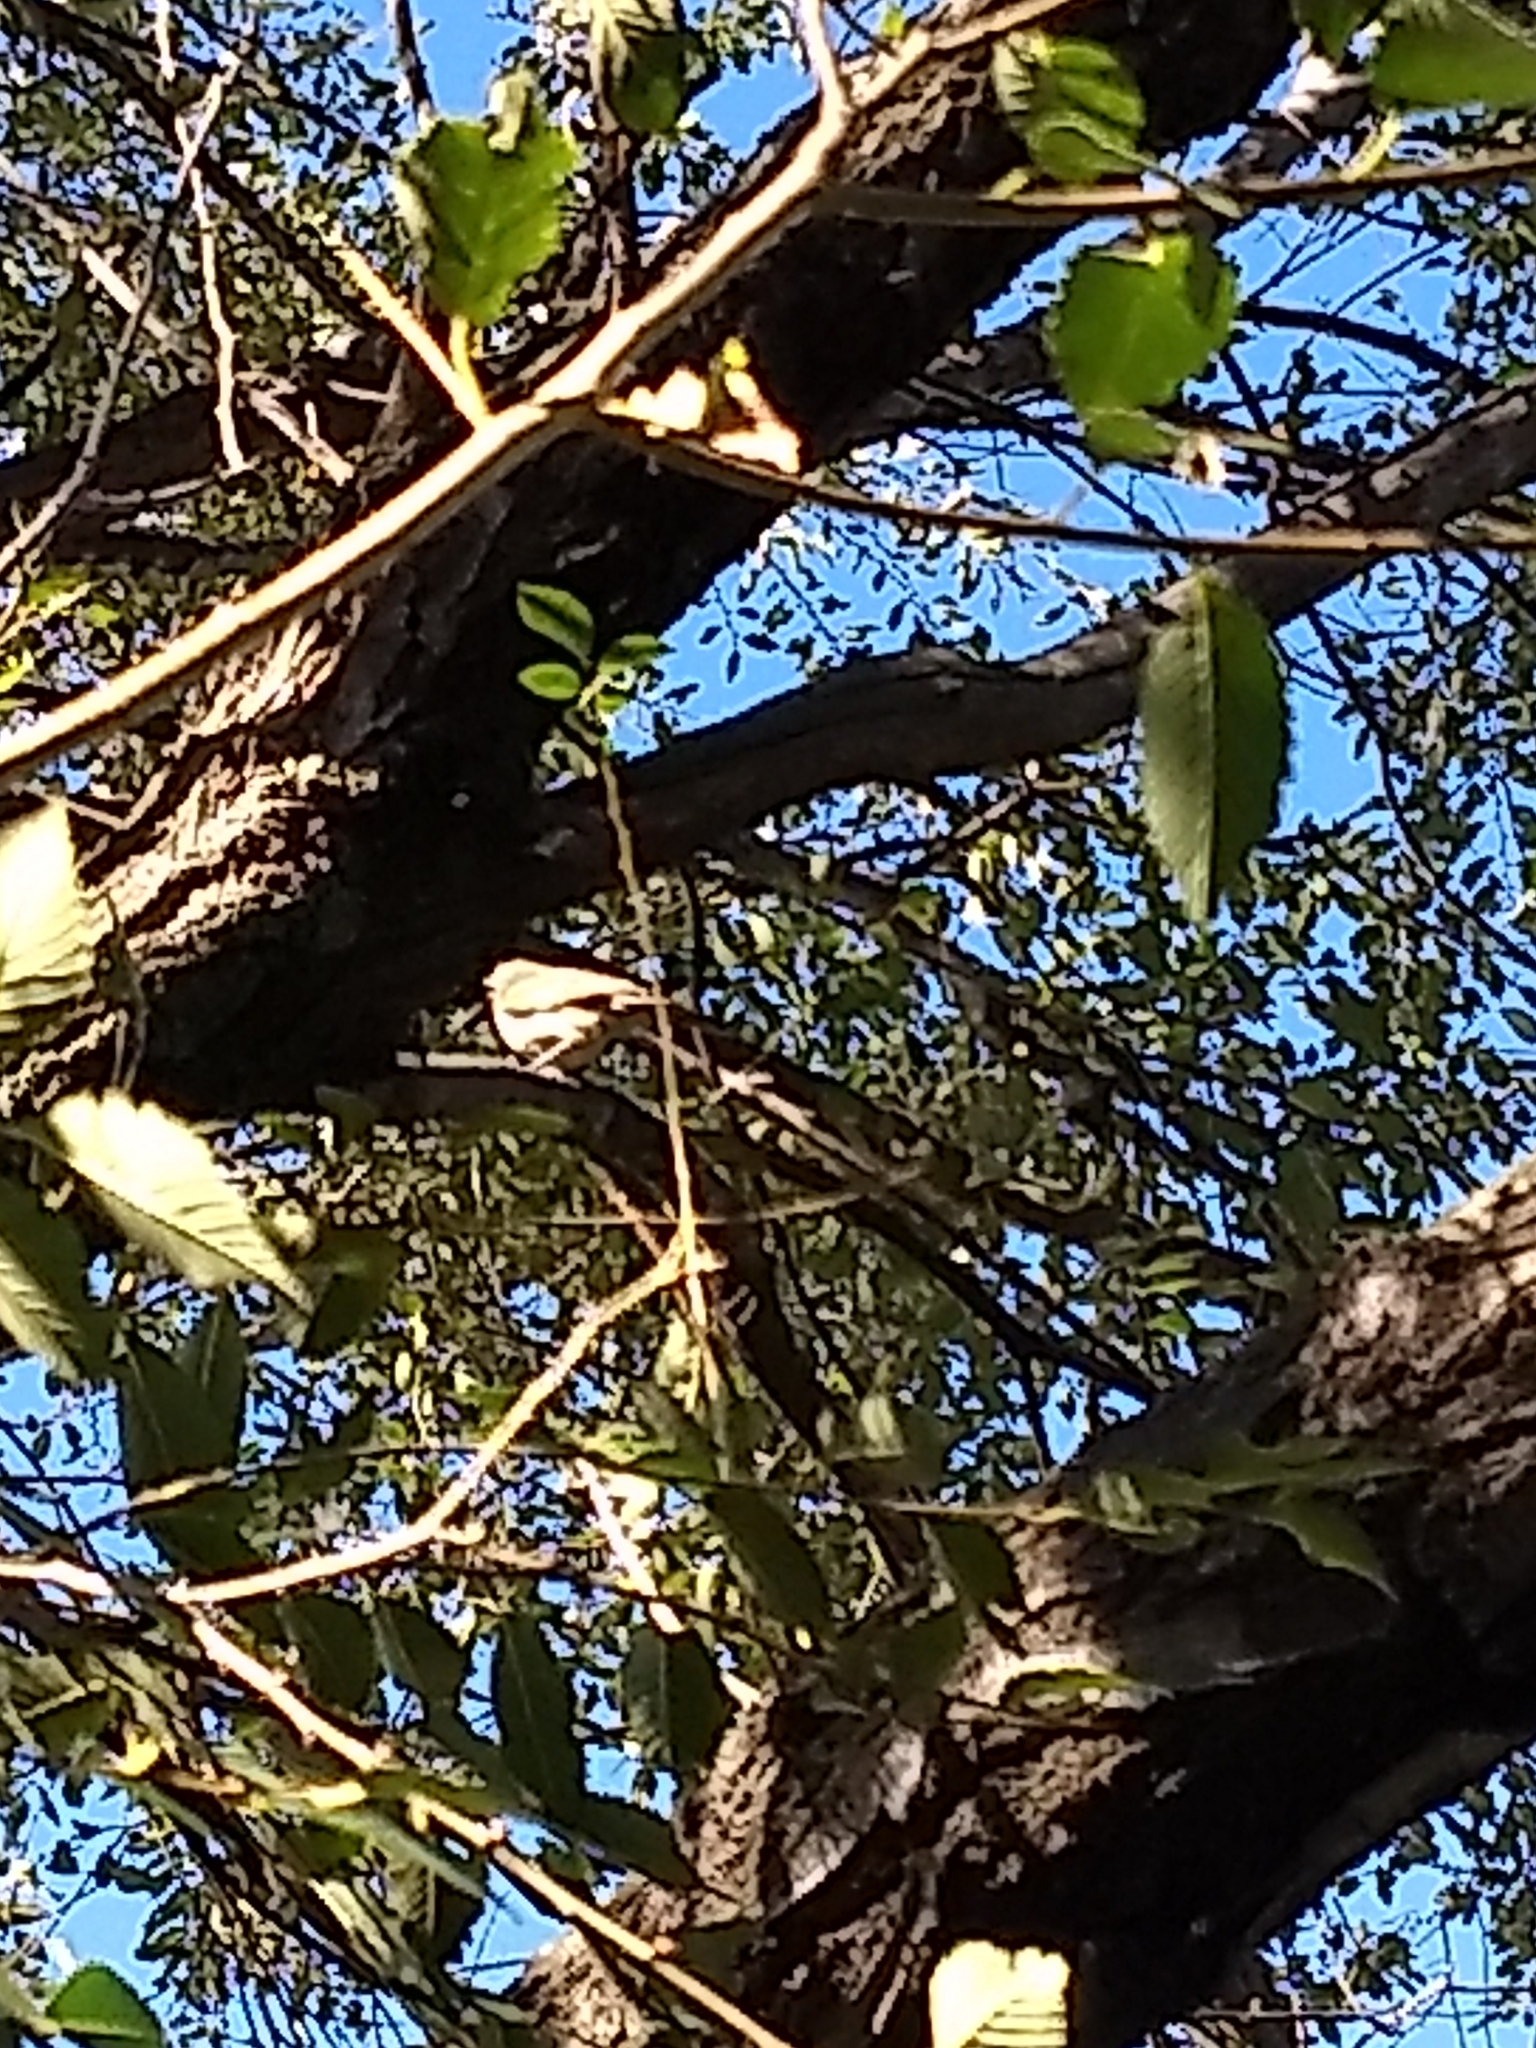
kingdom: Animalia
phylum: Chordata
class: Aves
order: Passeriformes
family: Furnariidae
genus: Upucerthia
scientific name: Upucerthia dumetaria
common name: Scale-throated earthcreeper
